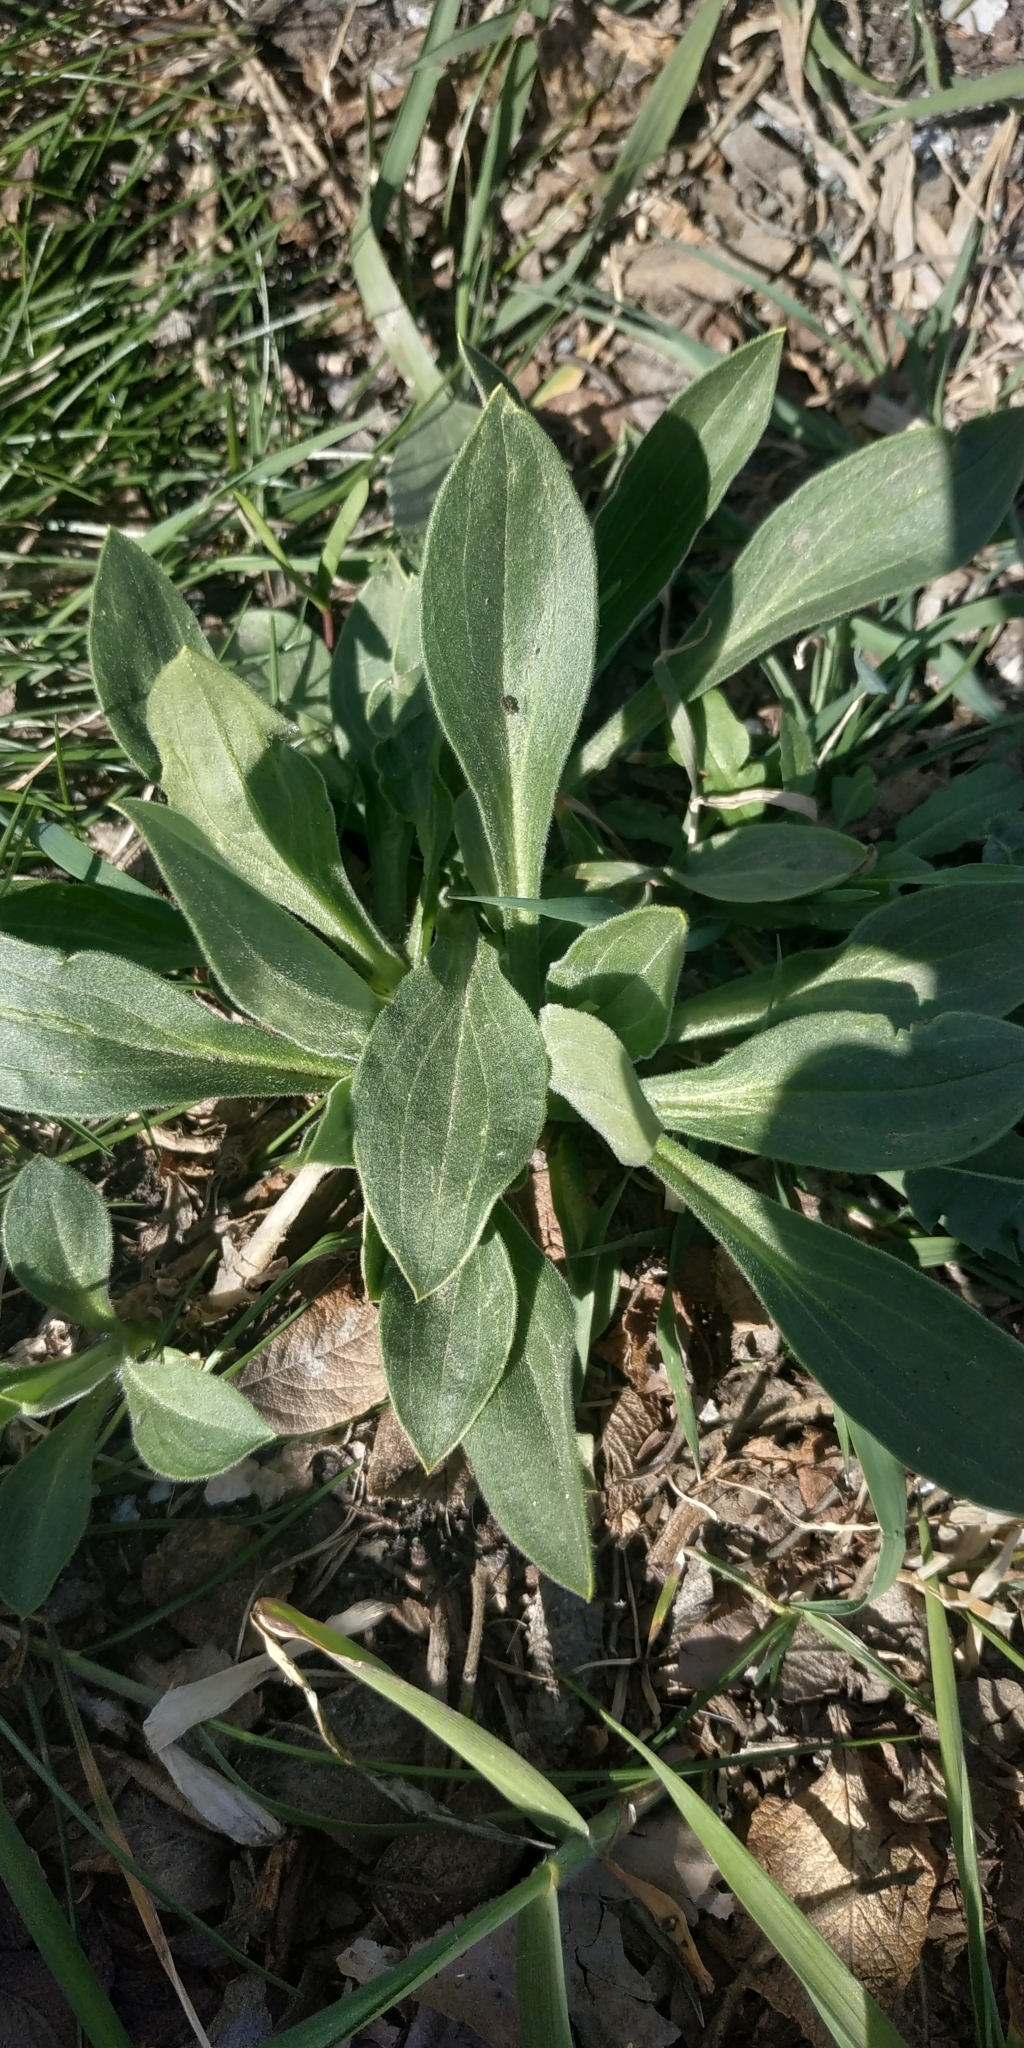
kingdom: Plantae
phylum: Tracheophyta
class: Magnoliopsida
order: Caryophyllales
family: Caryophyllaceae
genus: Silene
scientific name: Silene latifolia
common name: White campion
